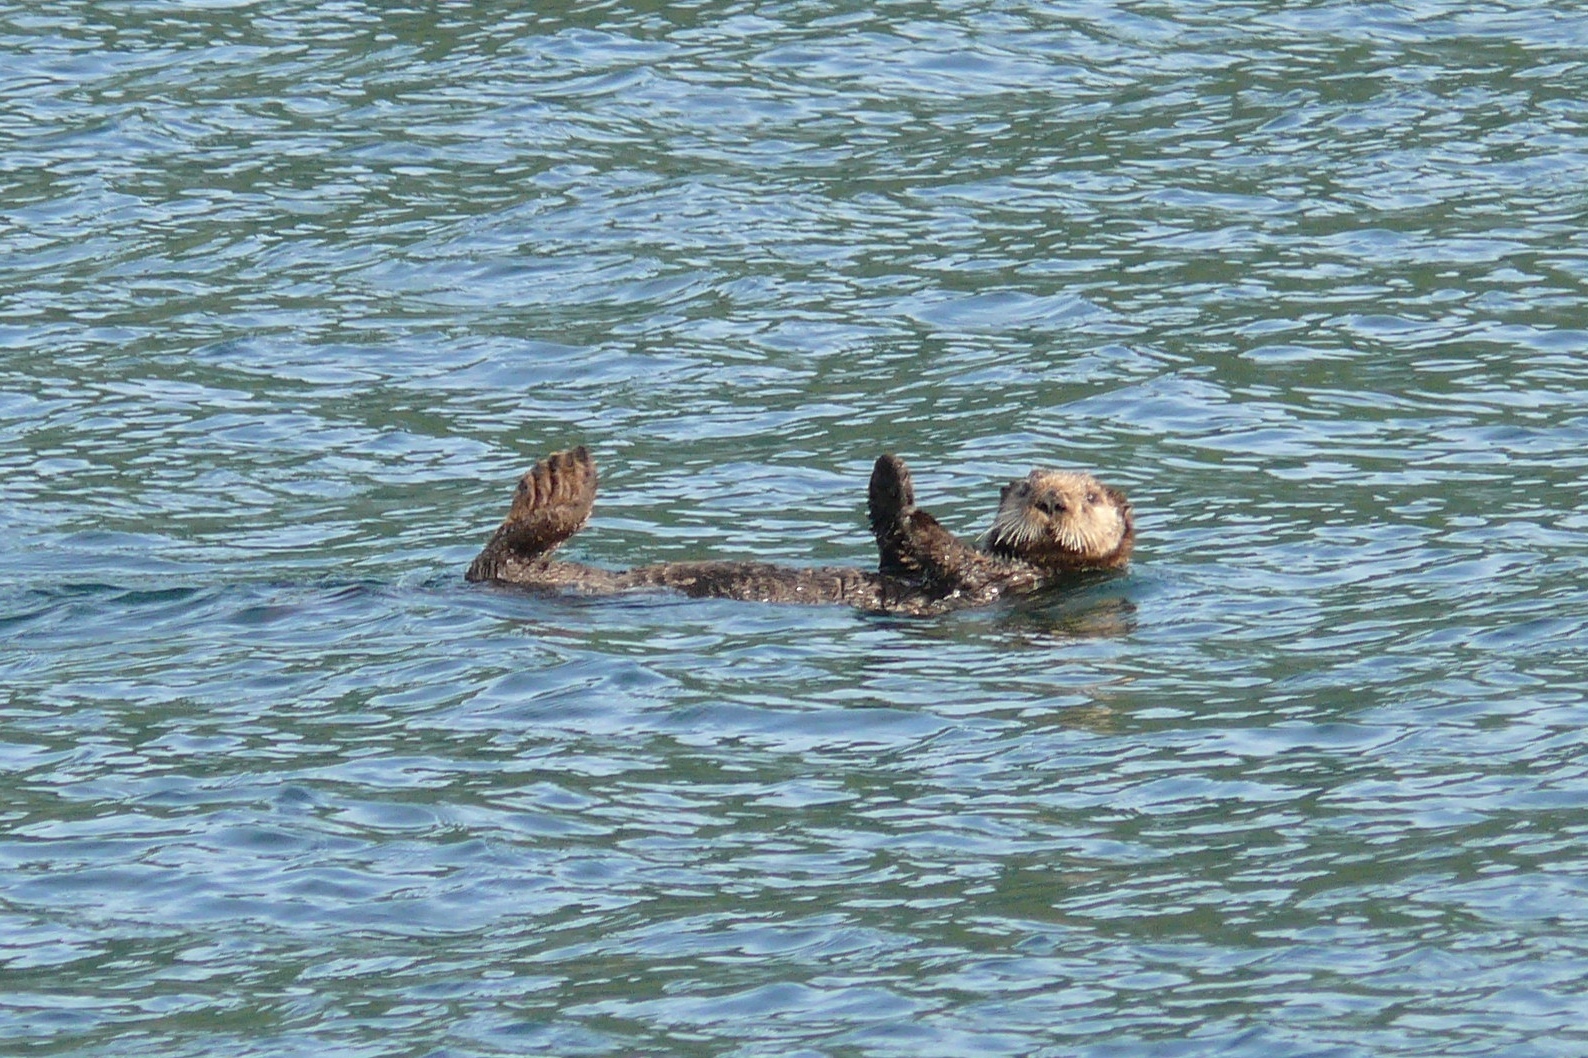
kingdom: Animalia
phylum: Chordata
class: Mammalia
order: Carnivora
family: Mustelidae
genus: Enhydra
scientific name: Enhydra lutris
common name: Sea otter
